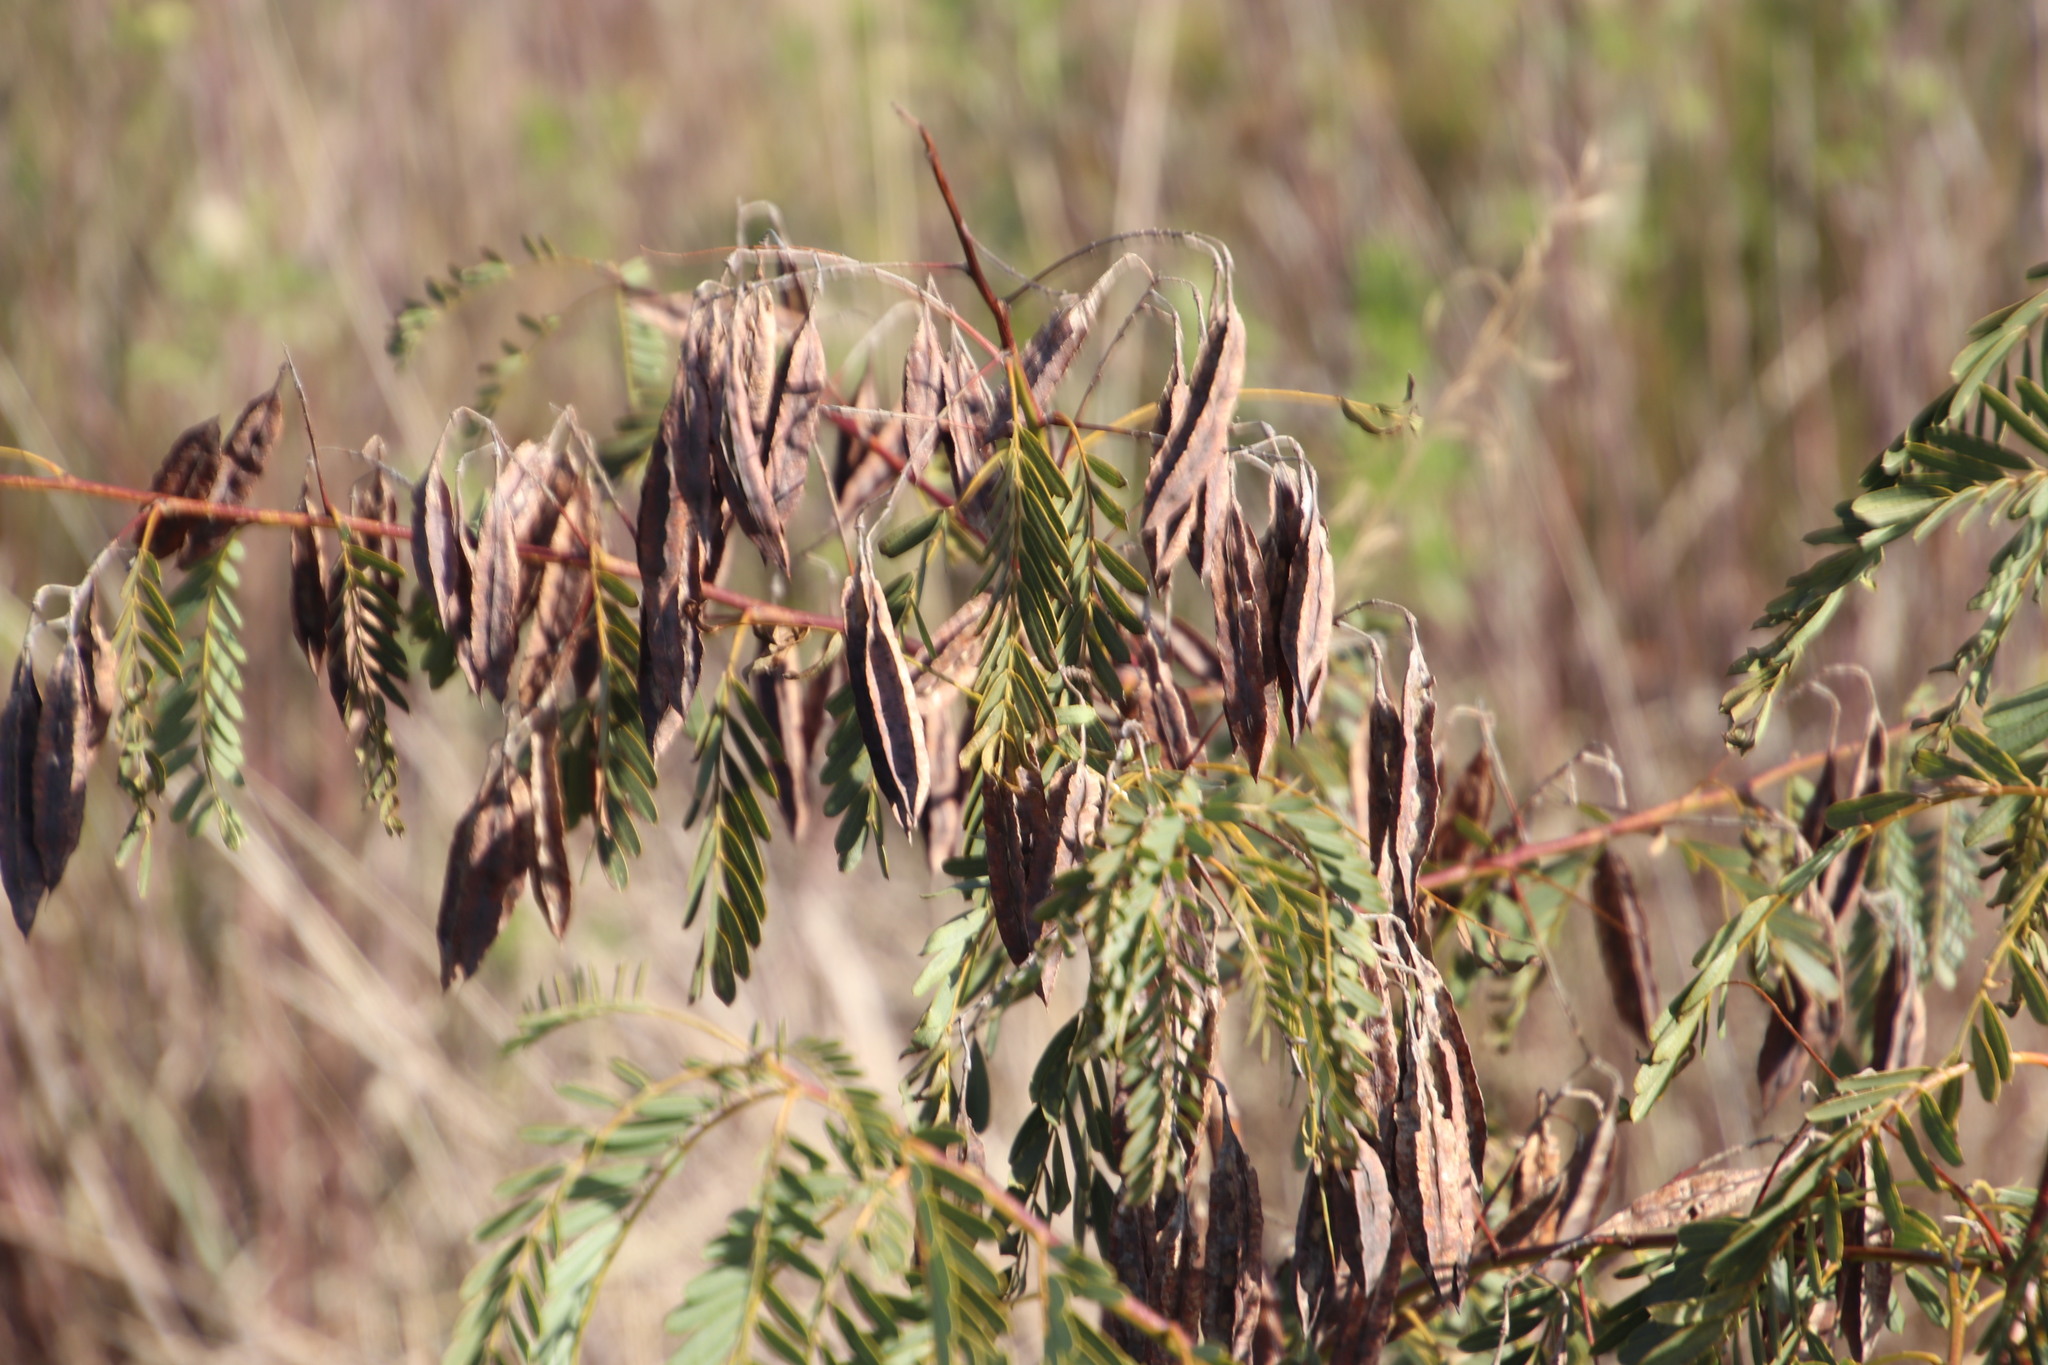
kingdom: Plantae
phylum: Tracheophyta
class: Magnoliopsida
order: Fabales
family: Fabaceae
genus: Sesbania
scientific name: Sesbania punicea
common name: Rattlebox
